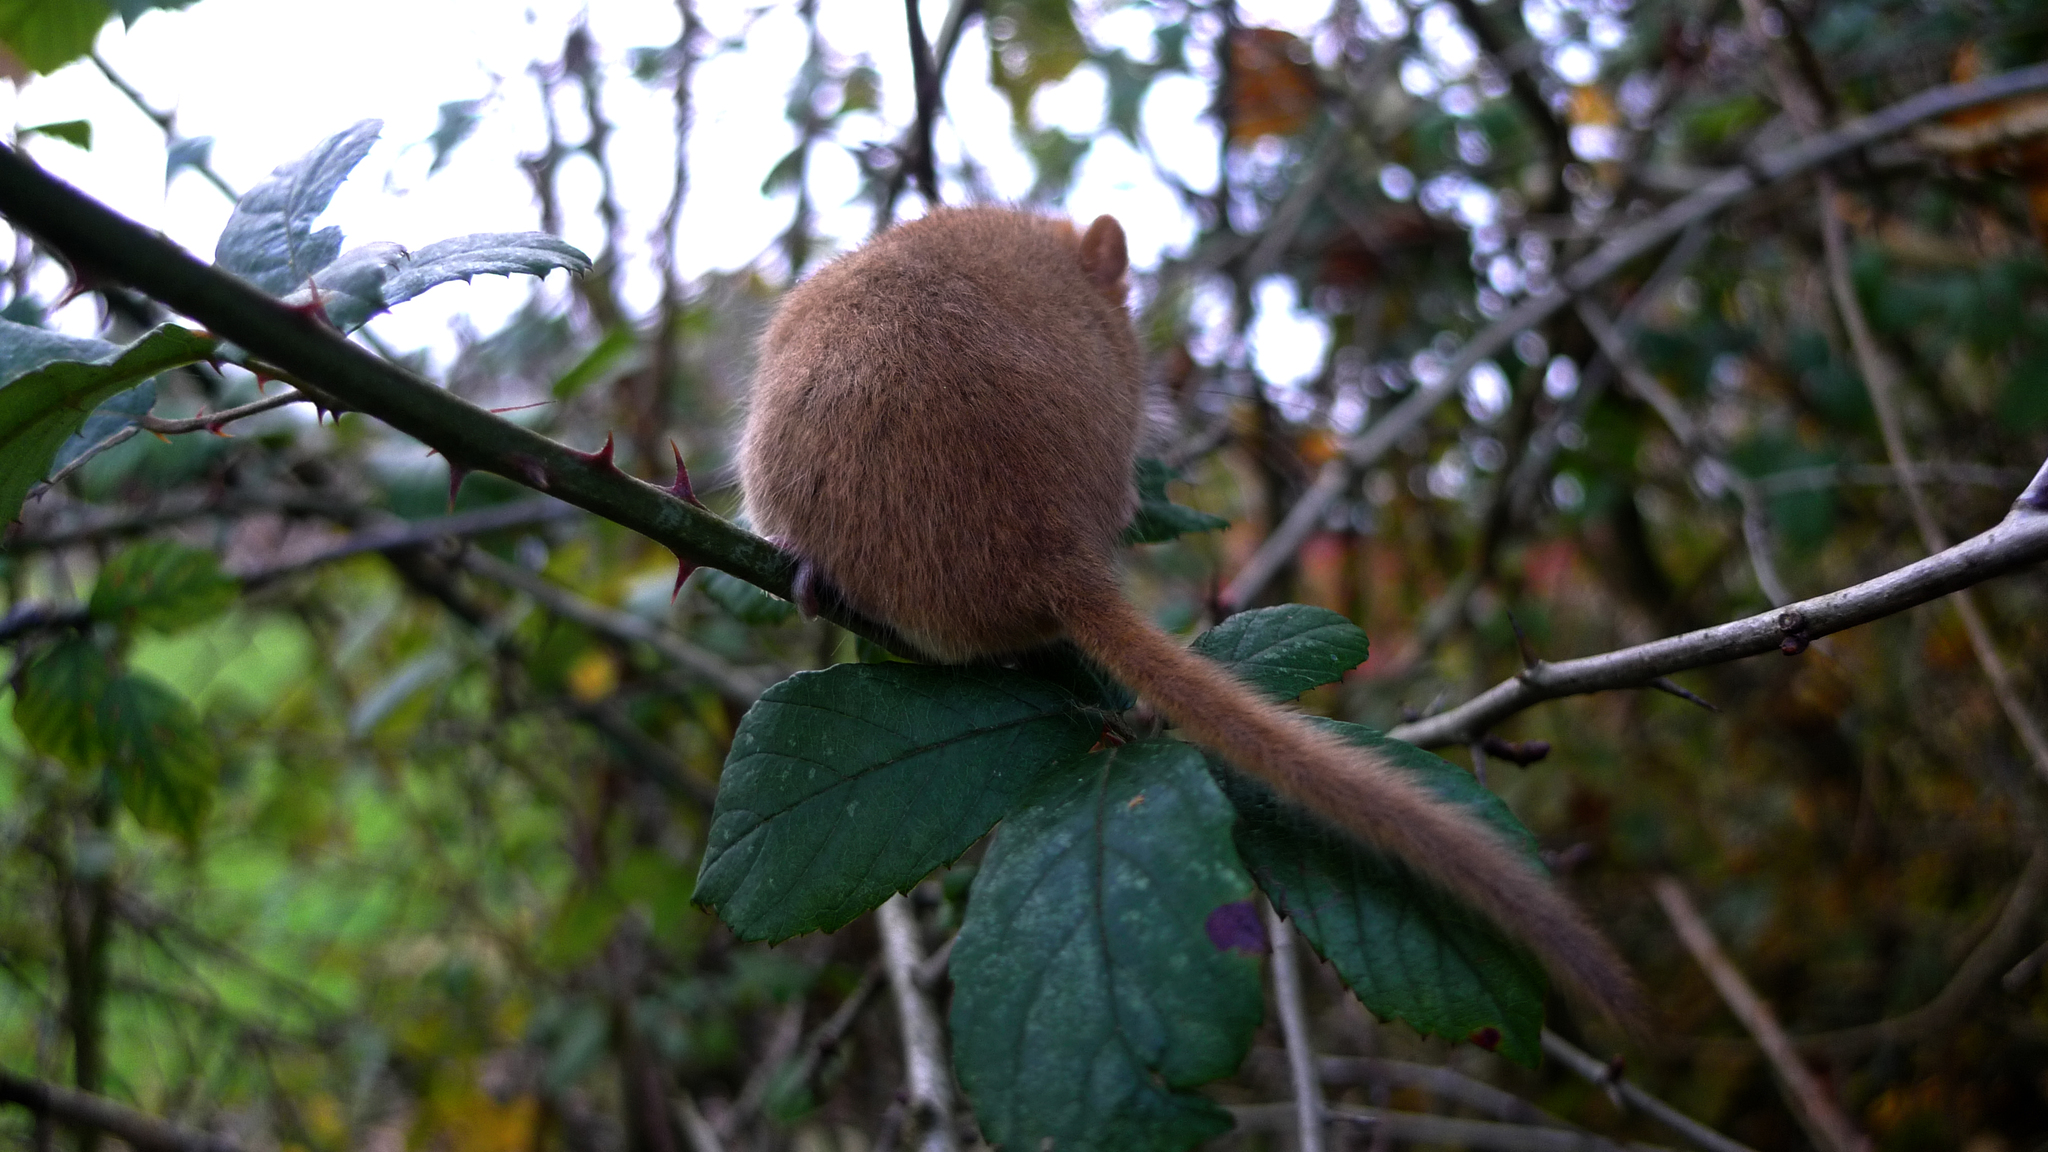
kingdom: Animalia
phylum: Chordata
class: Mammalia
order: Rodentia
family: Gliridae
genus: Muscardinus
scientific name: Muscardinus avellanarius
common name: Hazel dormouse
